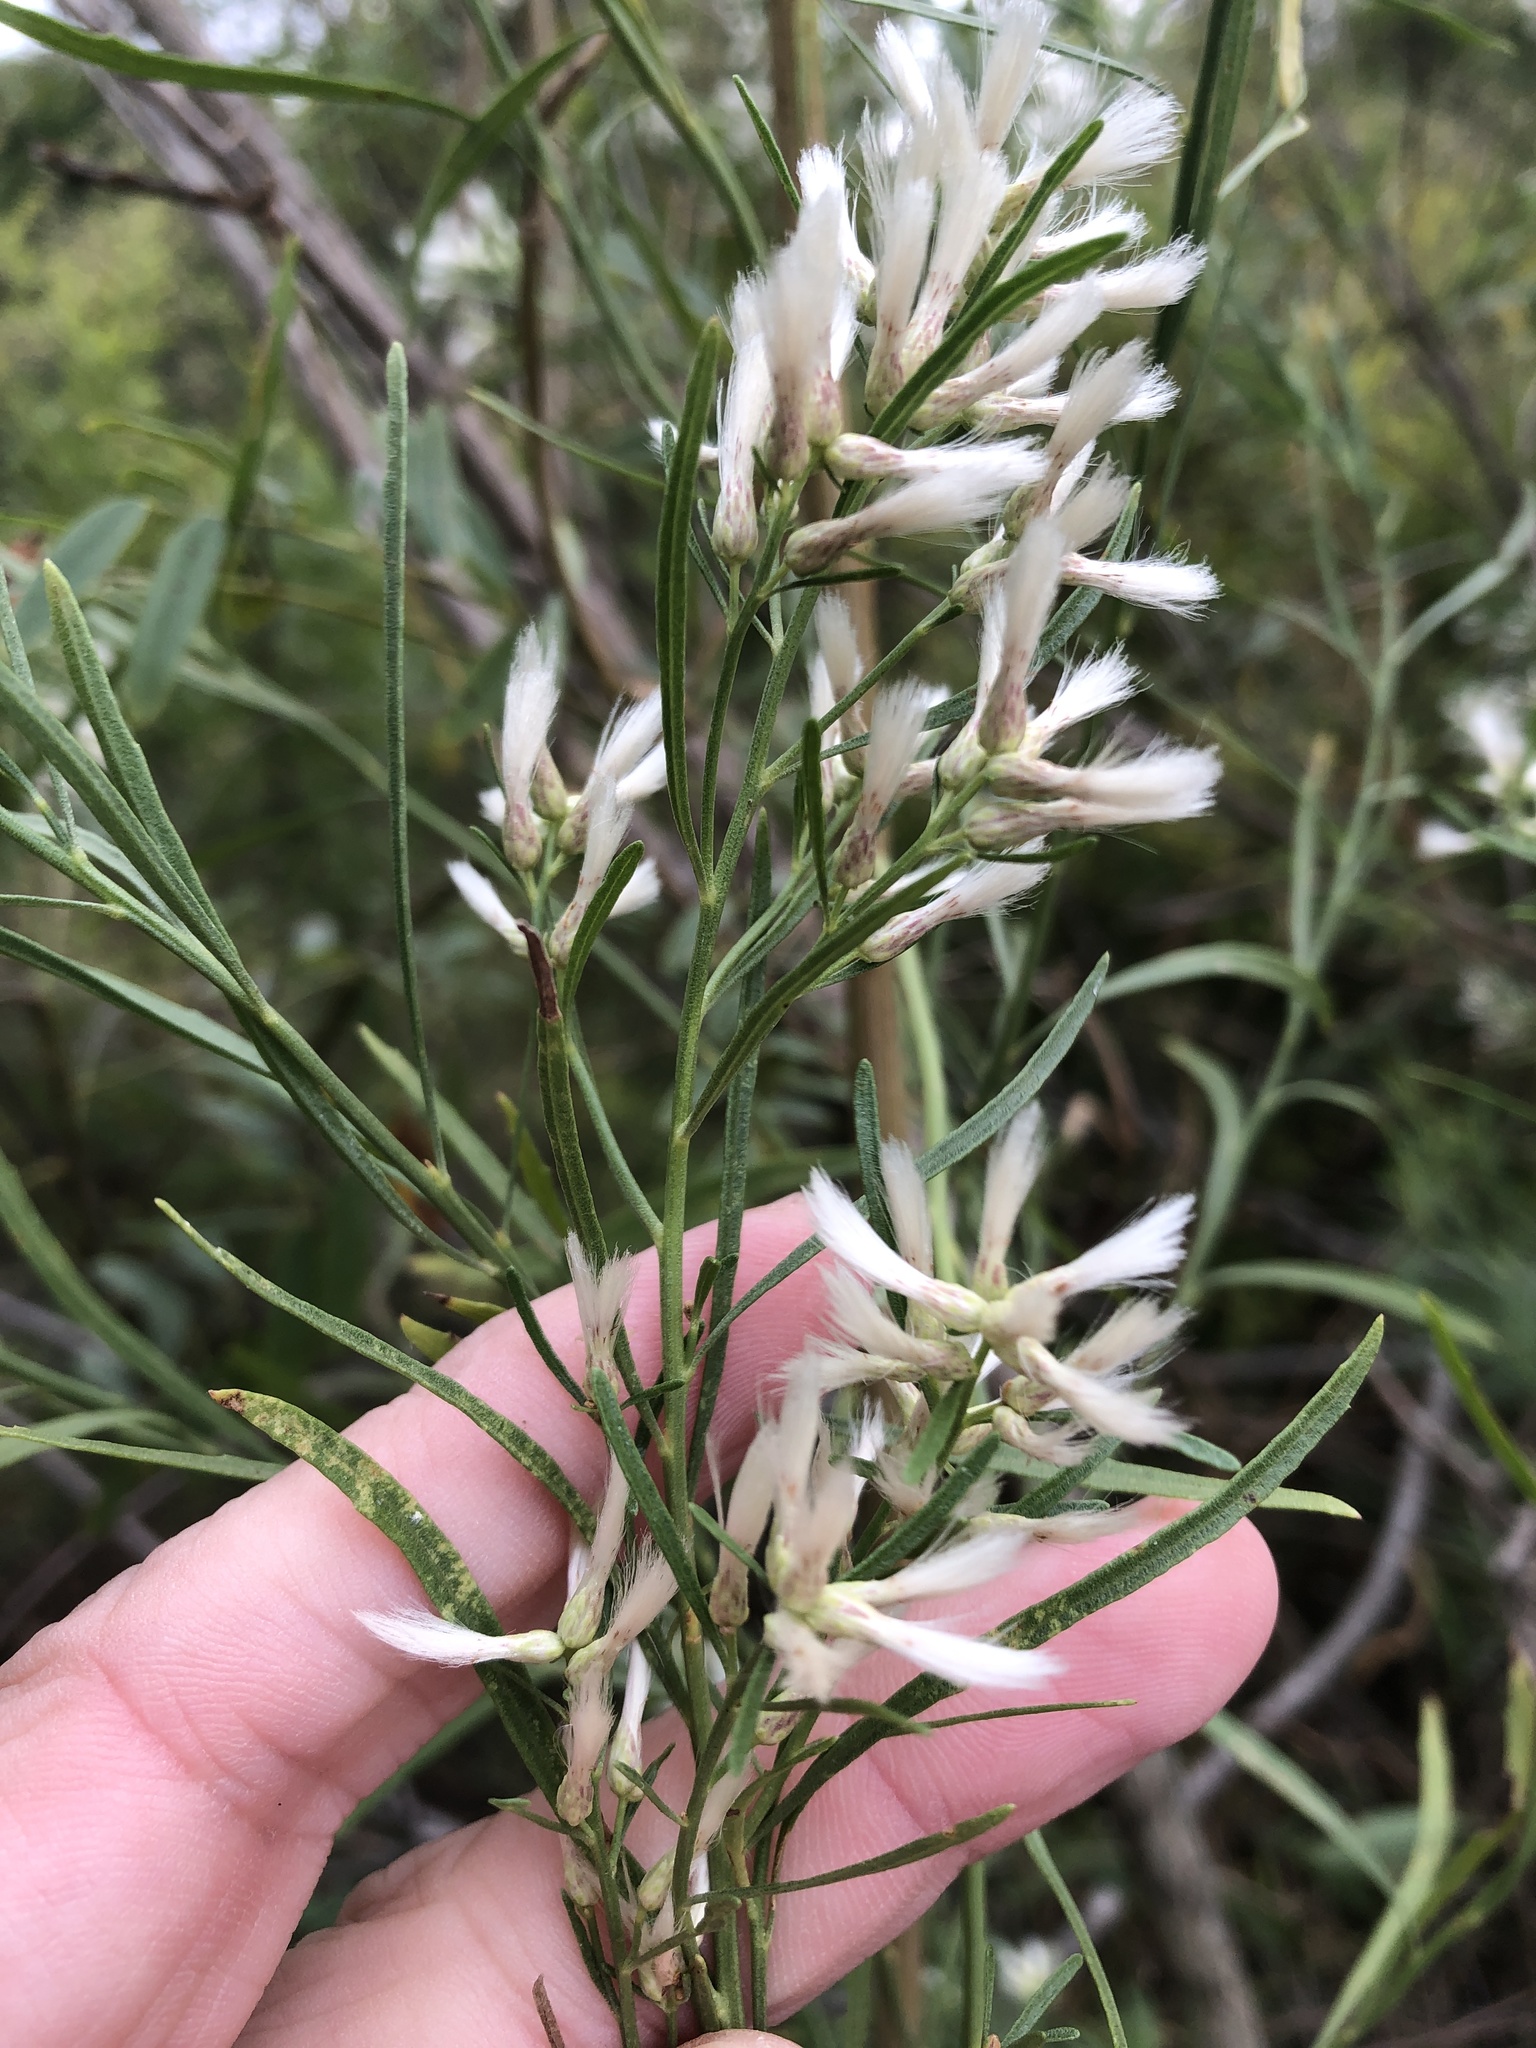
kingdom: Plantae
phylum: Tracheophyta
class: Magnoliopsida
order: Asterales
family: Asteraceae
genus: Baccharis
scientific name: Baccharis neglecta
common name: Roosevelt-weed
